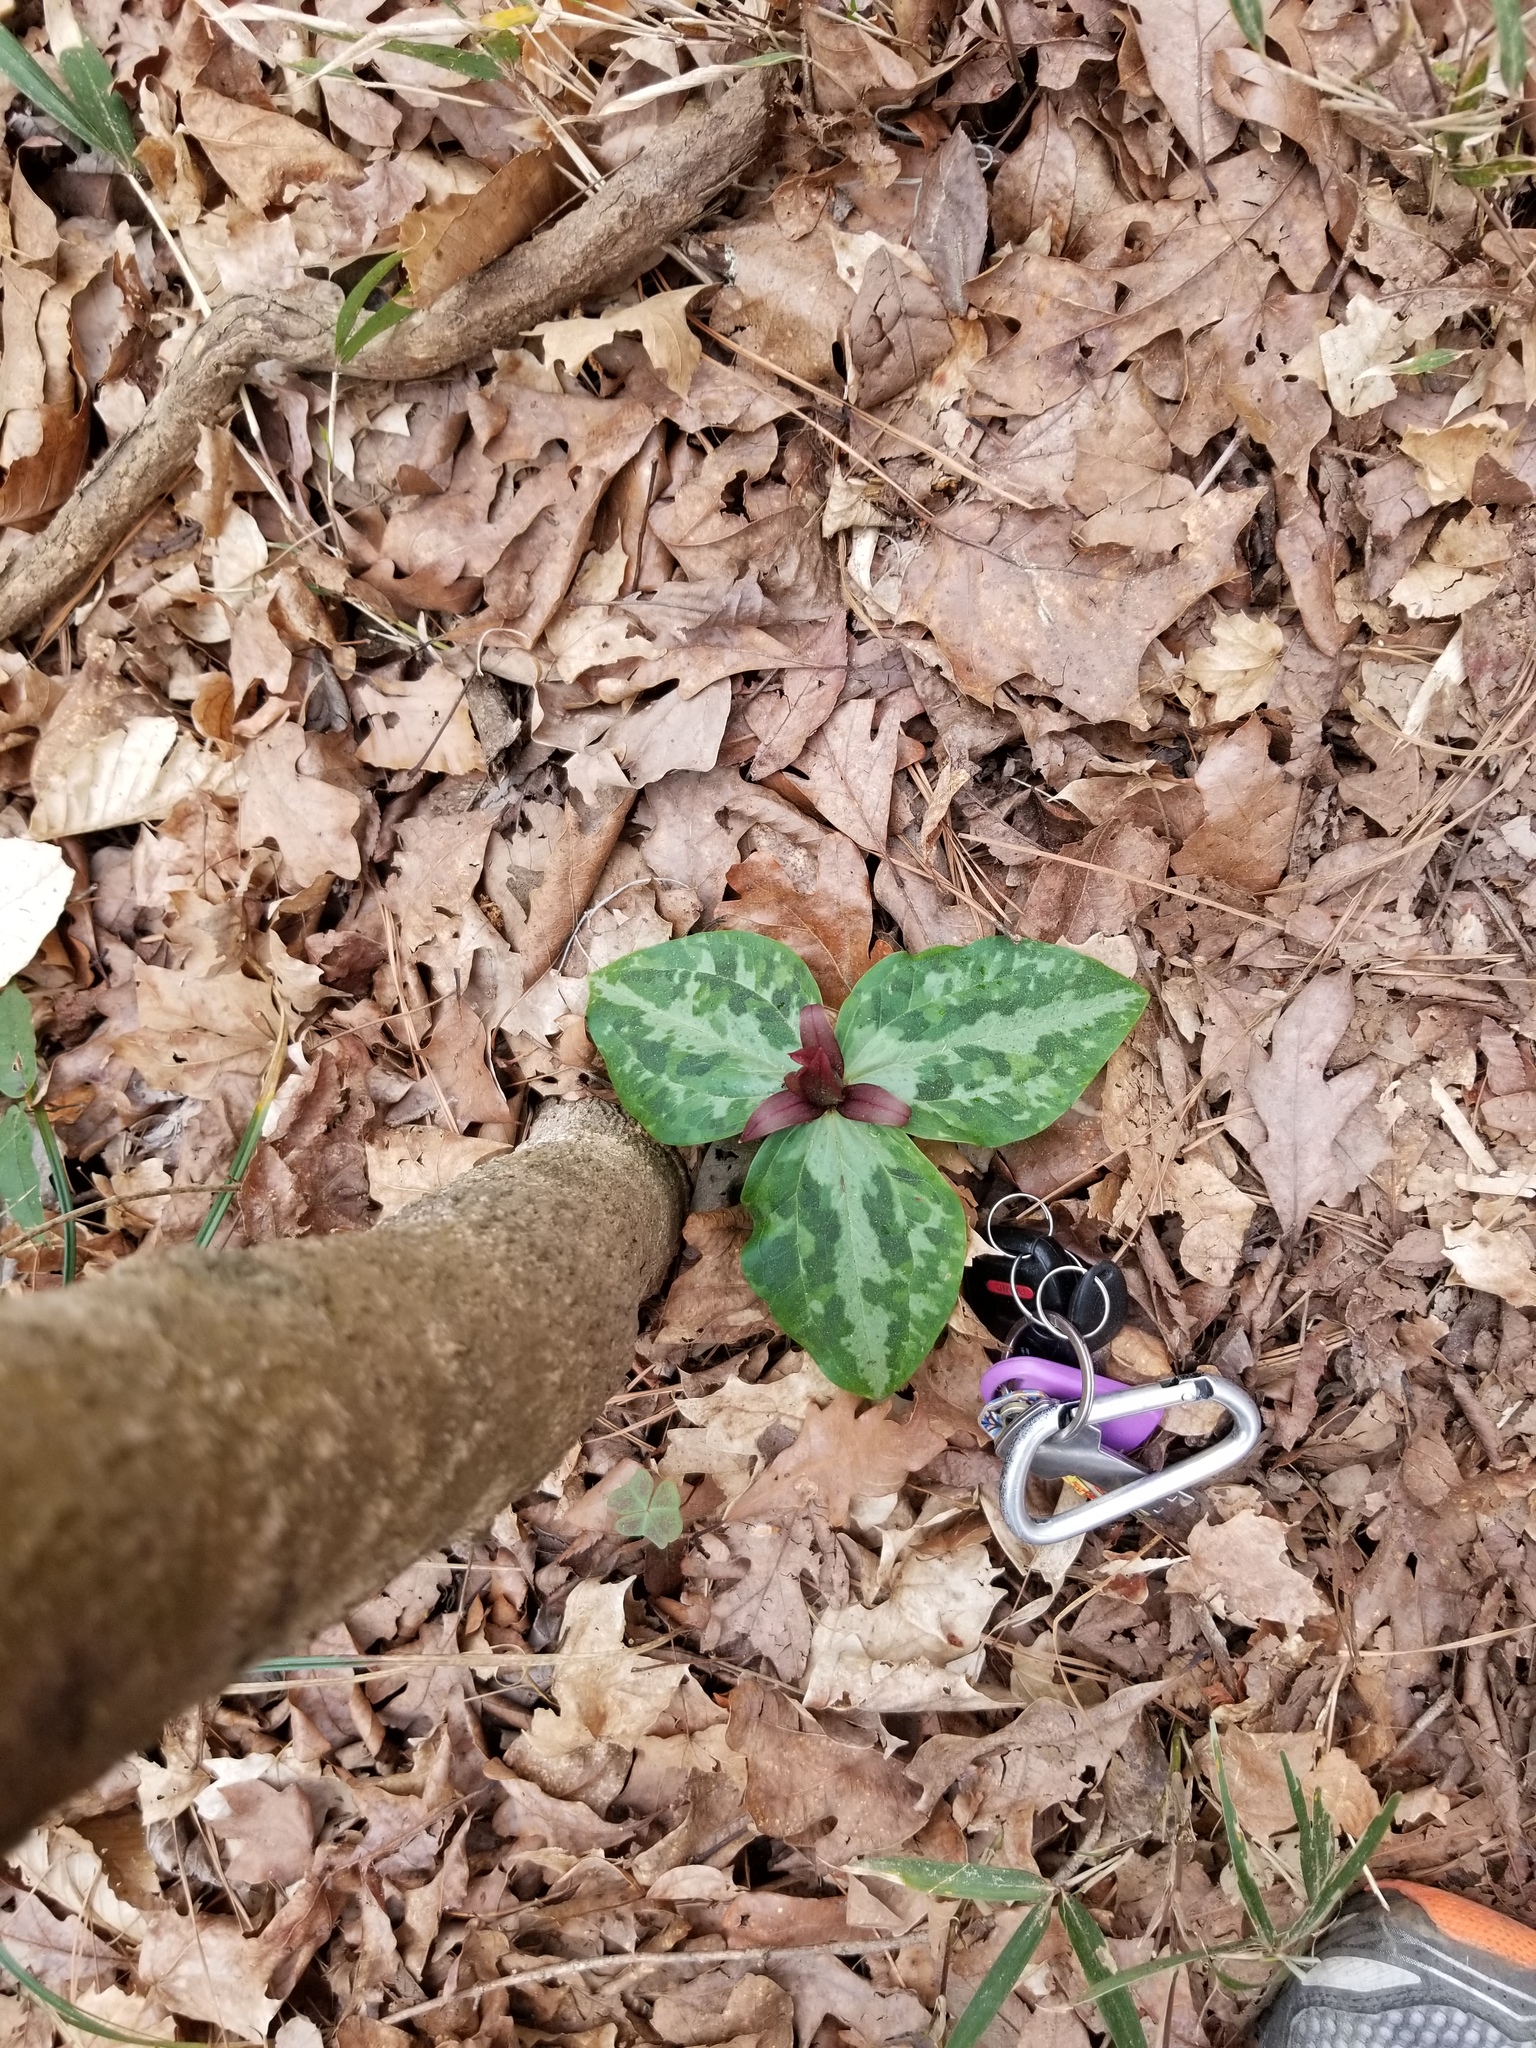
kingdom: Plantae
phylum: Tracheophyta
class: Liliopsida
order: Liliales
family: Melanthiaceae
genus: Trillium
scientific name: Trillium reliquum
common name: Relict trillium
